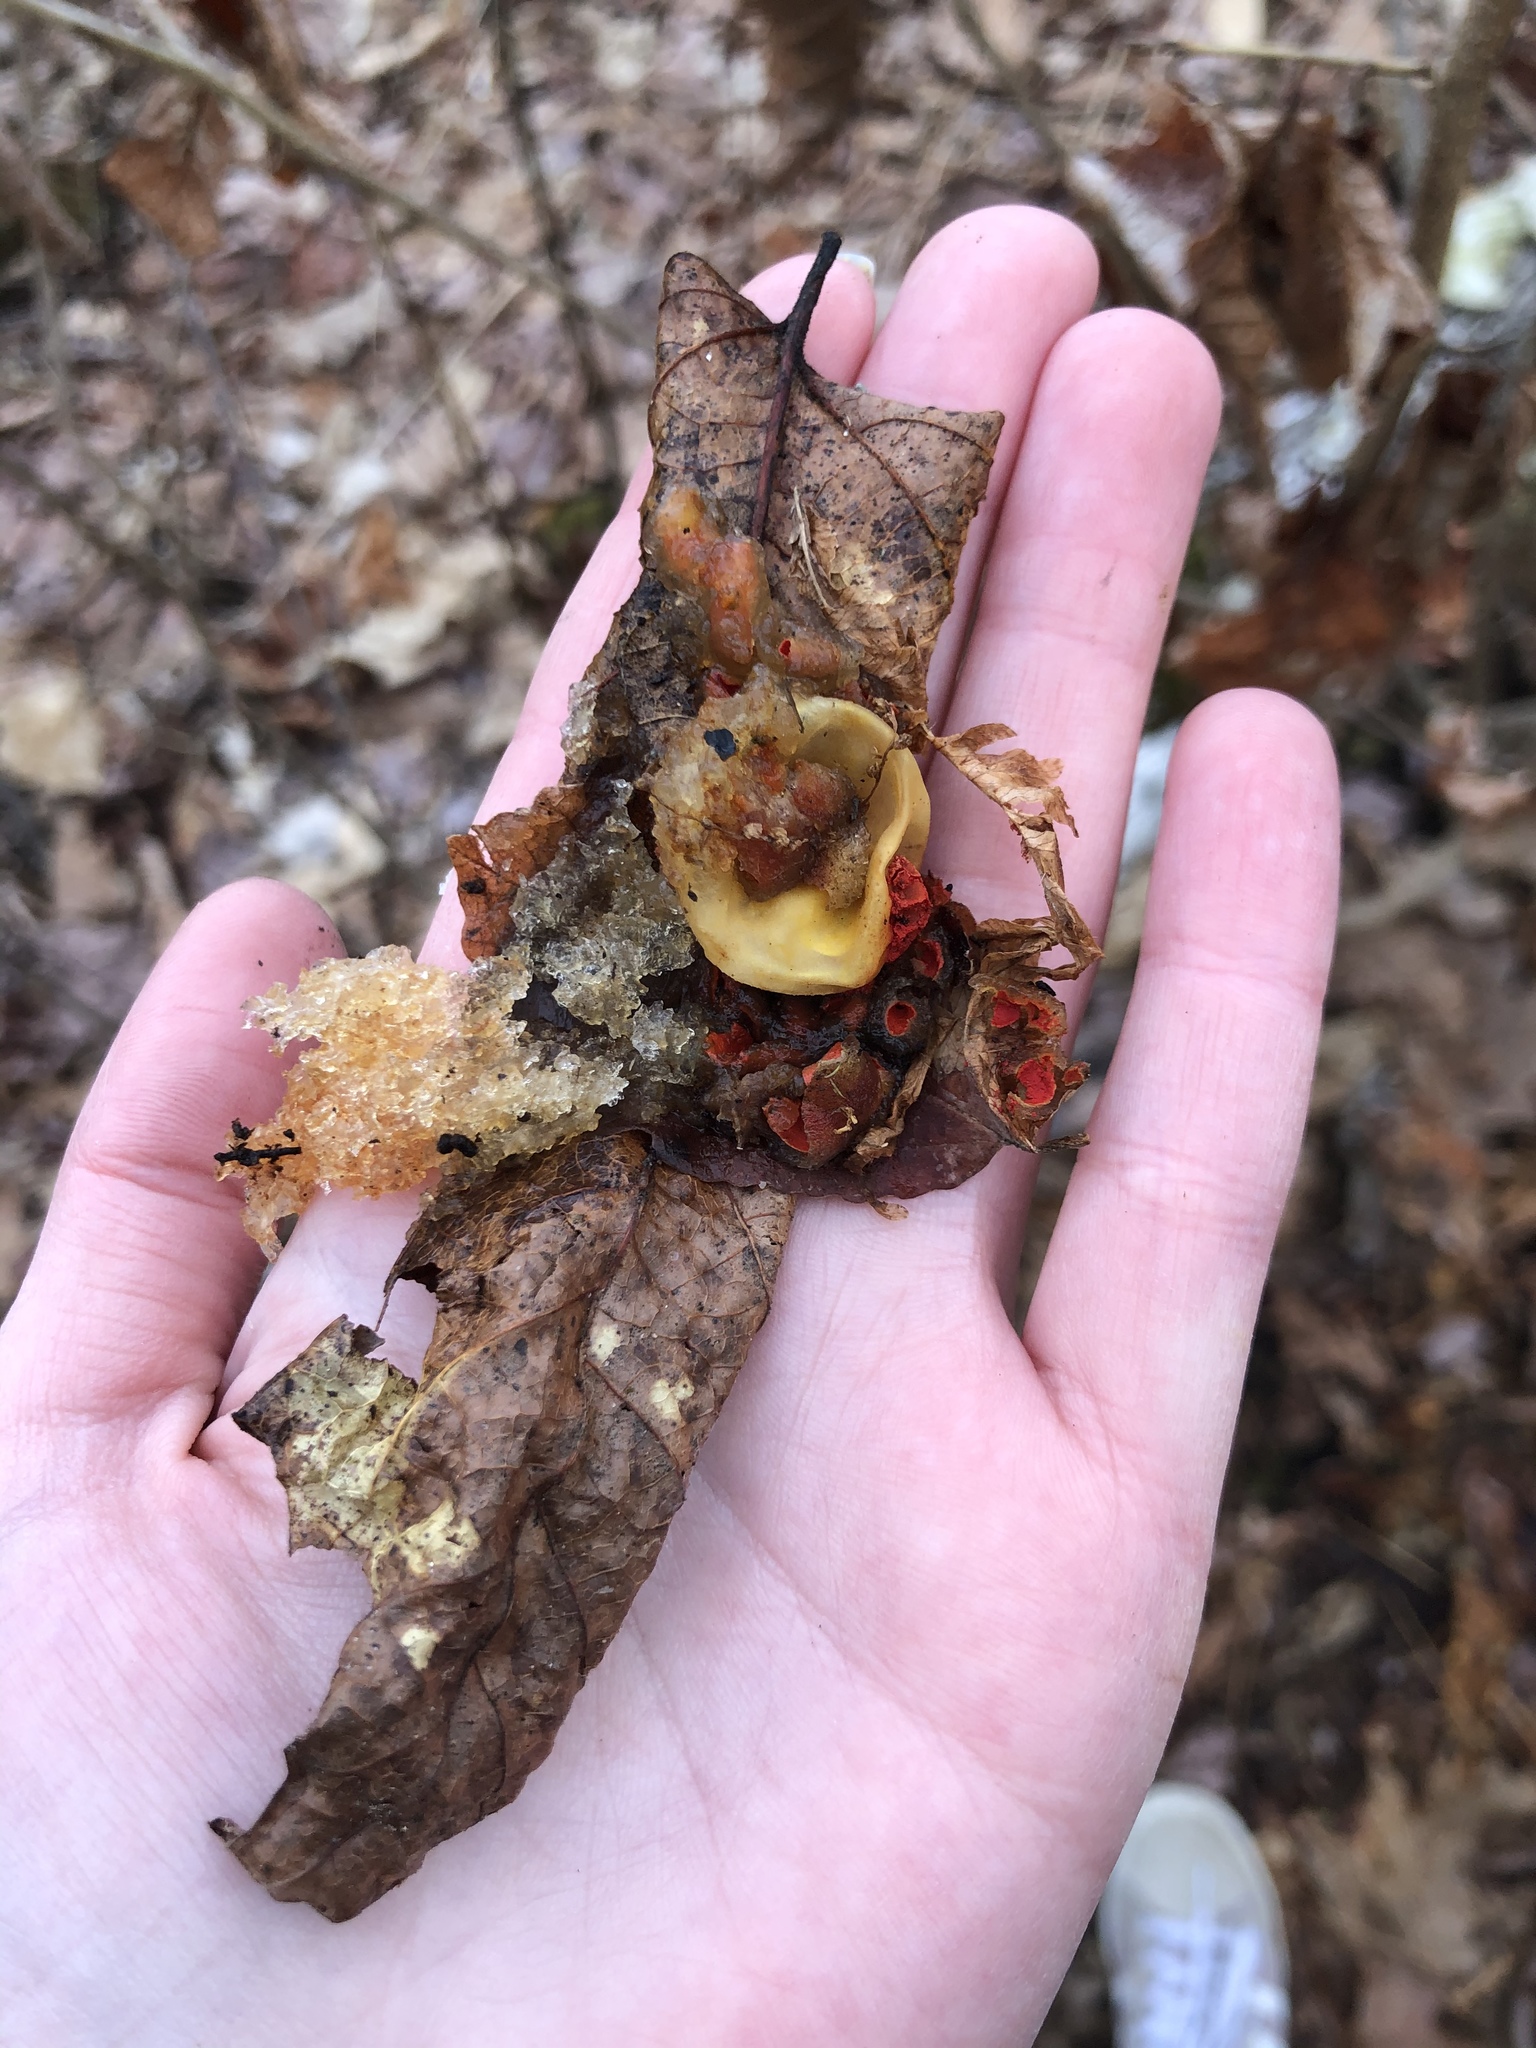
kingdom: Fungi
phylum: Basidiomycota
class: Agaricomycetes
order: Boletales
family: Calostomataceae
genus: Calostoma
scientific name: Calostoma cinnabarinum
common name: Stalked puffball-in-aspic
